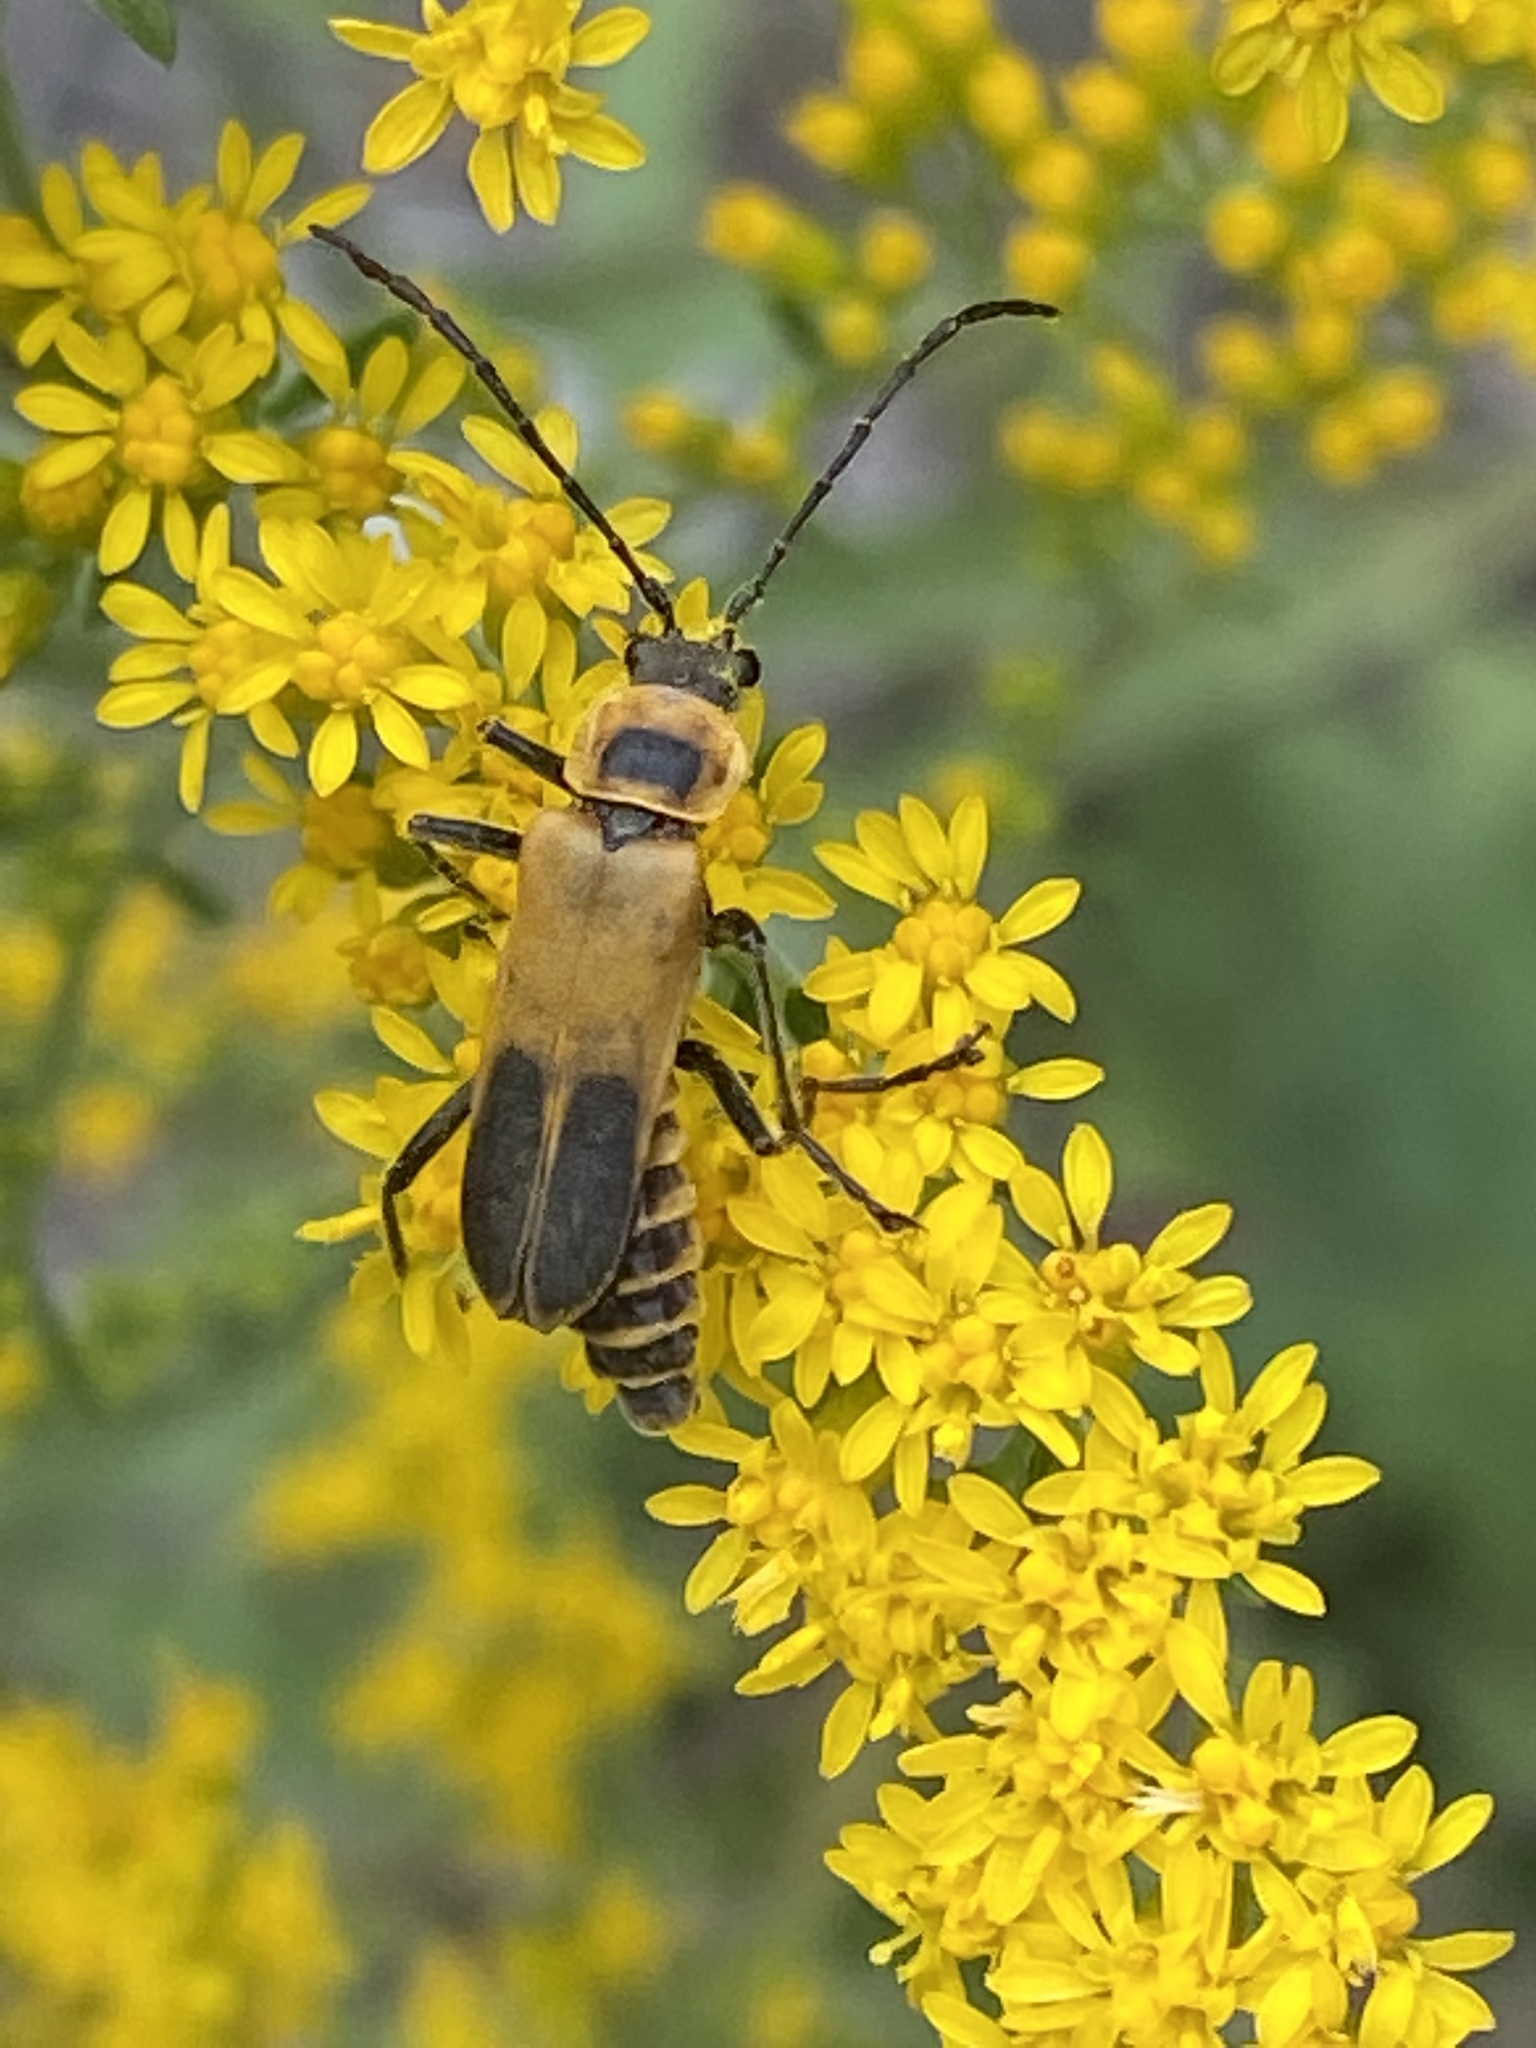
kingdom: Animalia
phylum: Arthropoda
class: Insecta
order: Coleoptera
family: Cantharidae
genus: Chauliognathus
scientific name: Chauliognathus pensylvanicus
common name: Goldenrod soldier beetle
